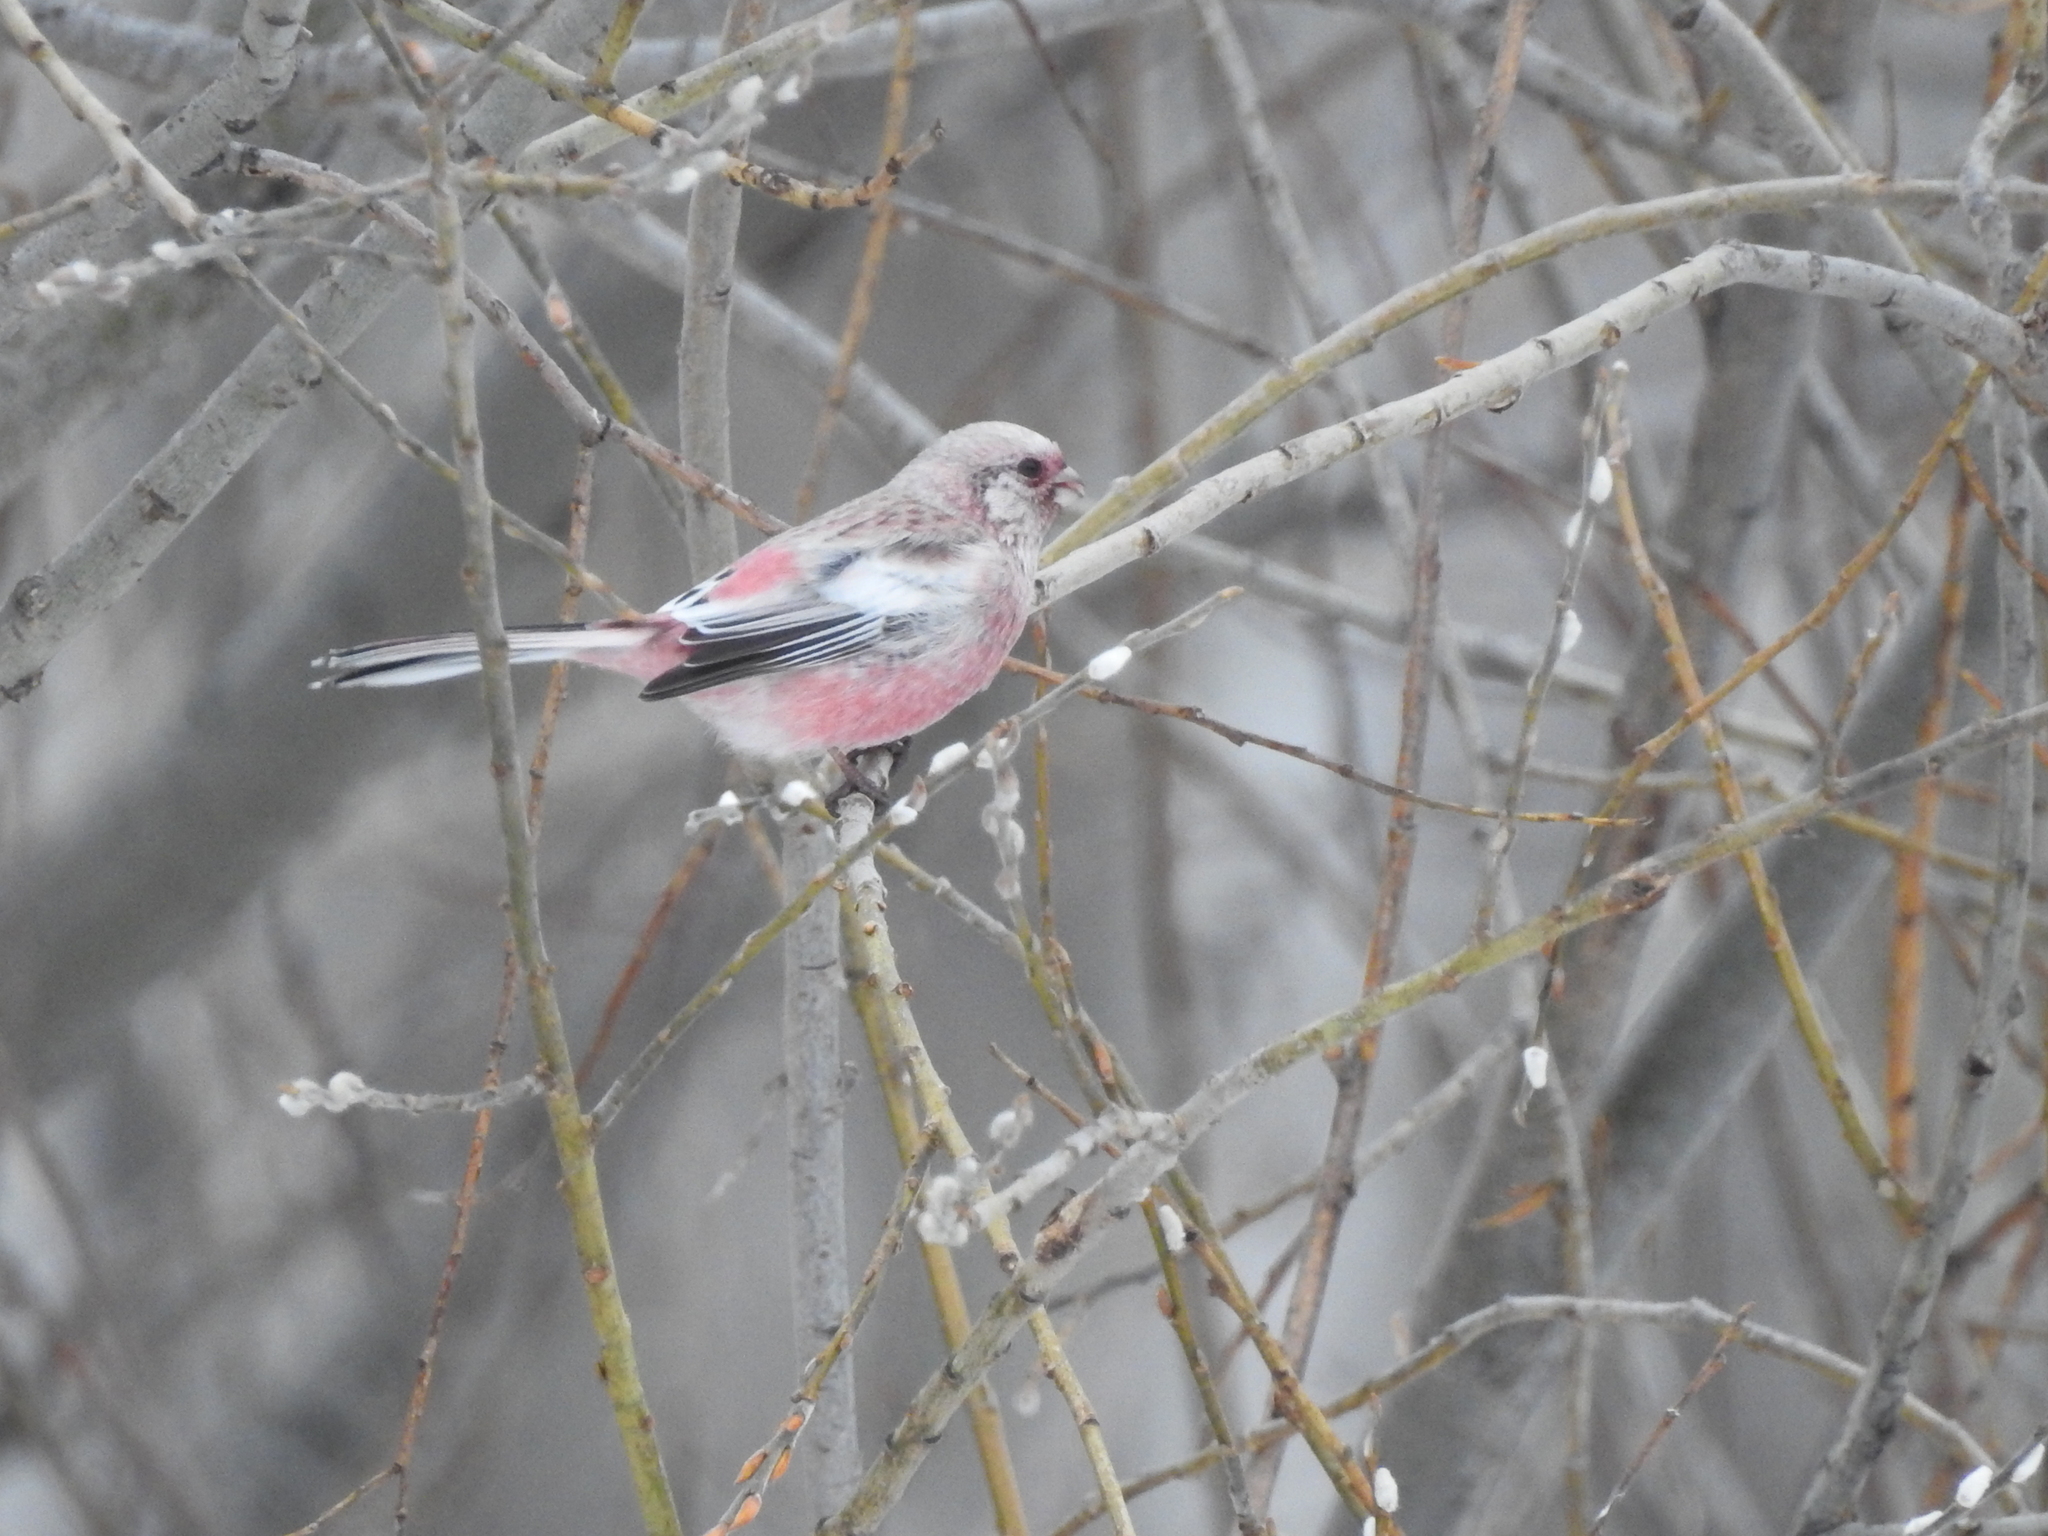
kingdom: Animalia
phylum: Chordata
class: Aves
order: Passeriformes
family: Fringillidae
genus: Carpodacus
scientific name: Carpodacus sibiricus
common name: Long-tailed rosefinch
